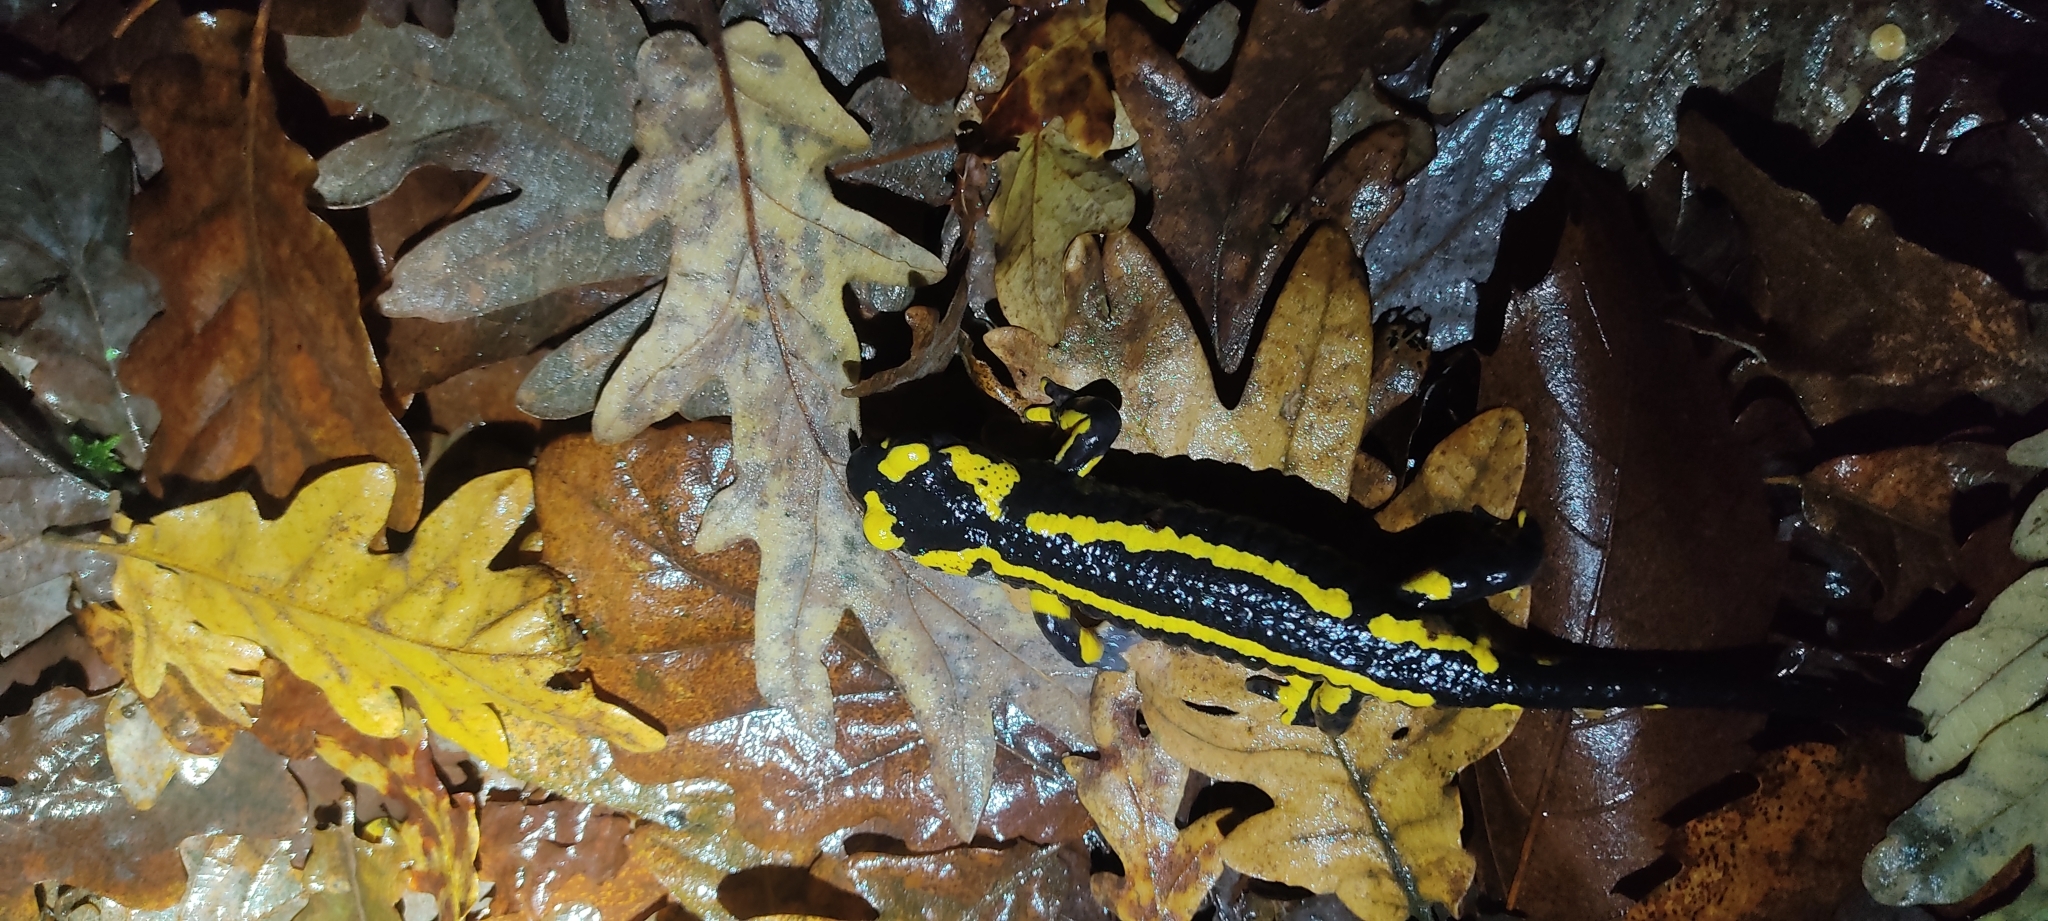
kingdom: Animalia
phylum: Chordata
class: Amphibia
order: Caudata
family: Salamandridae
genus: Salamandra
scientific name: Salamandra salamandra
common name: Fire salamander
